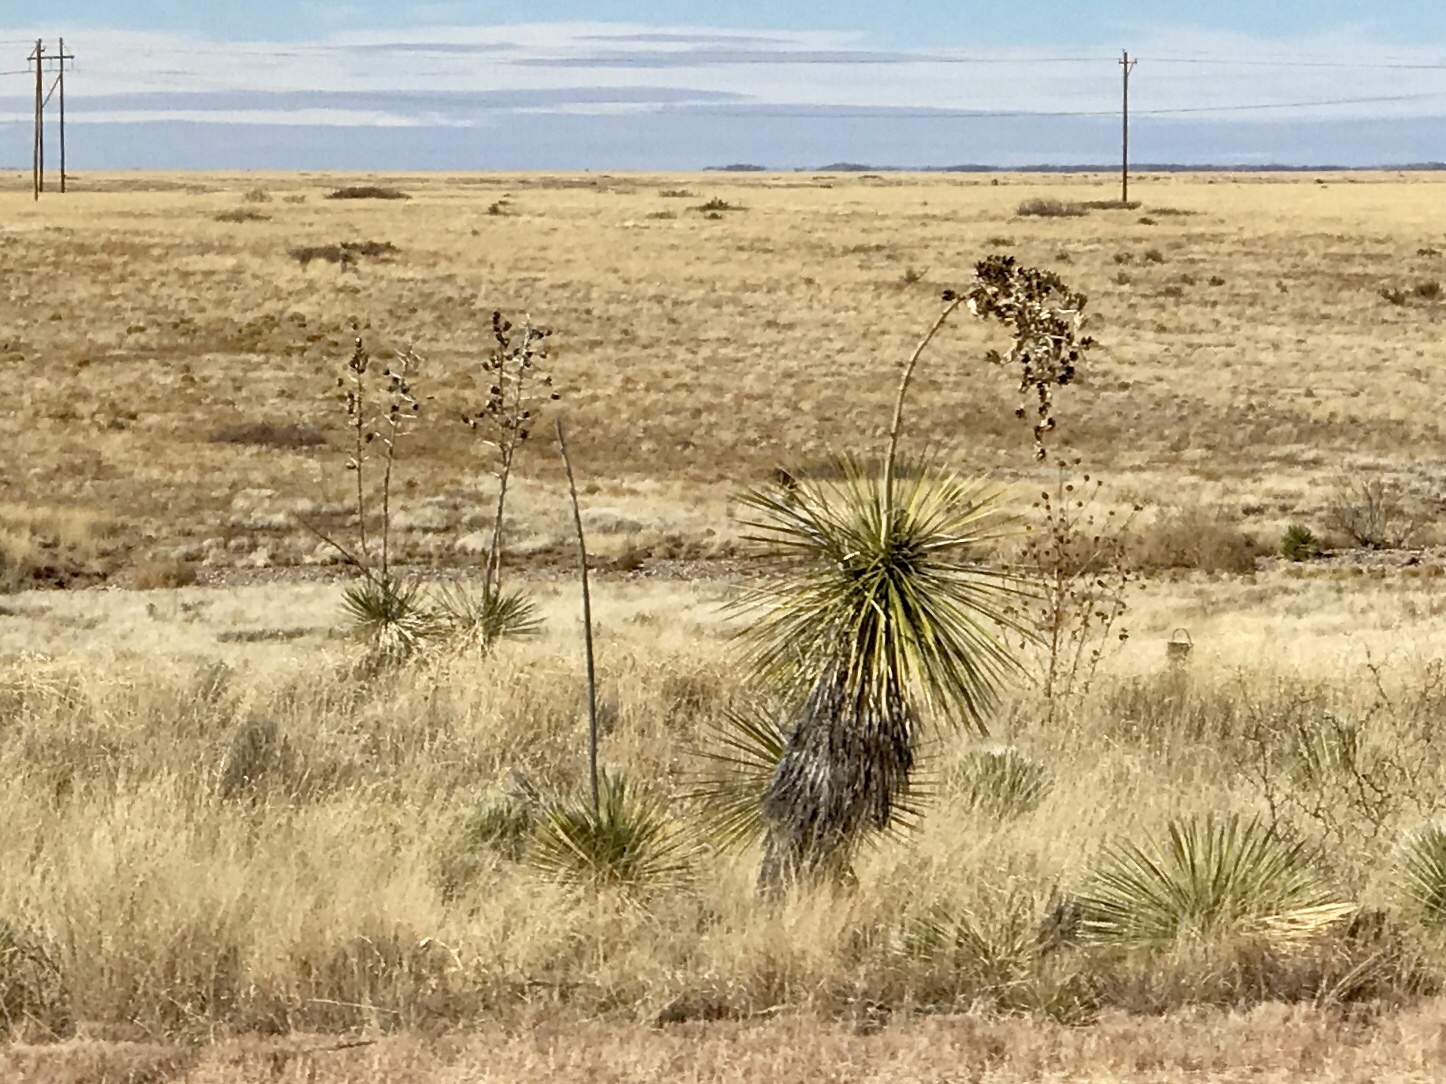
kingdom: Plantae
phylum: Tracheophyta
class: Liliopsida
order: Asparagales
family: Asparagaceae
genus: Yucca
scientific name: Yucca elata
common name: Palmella
